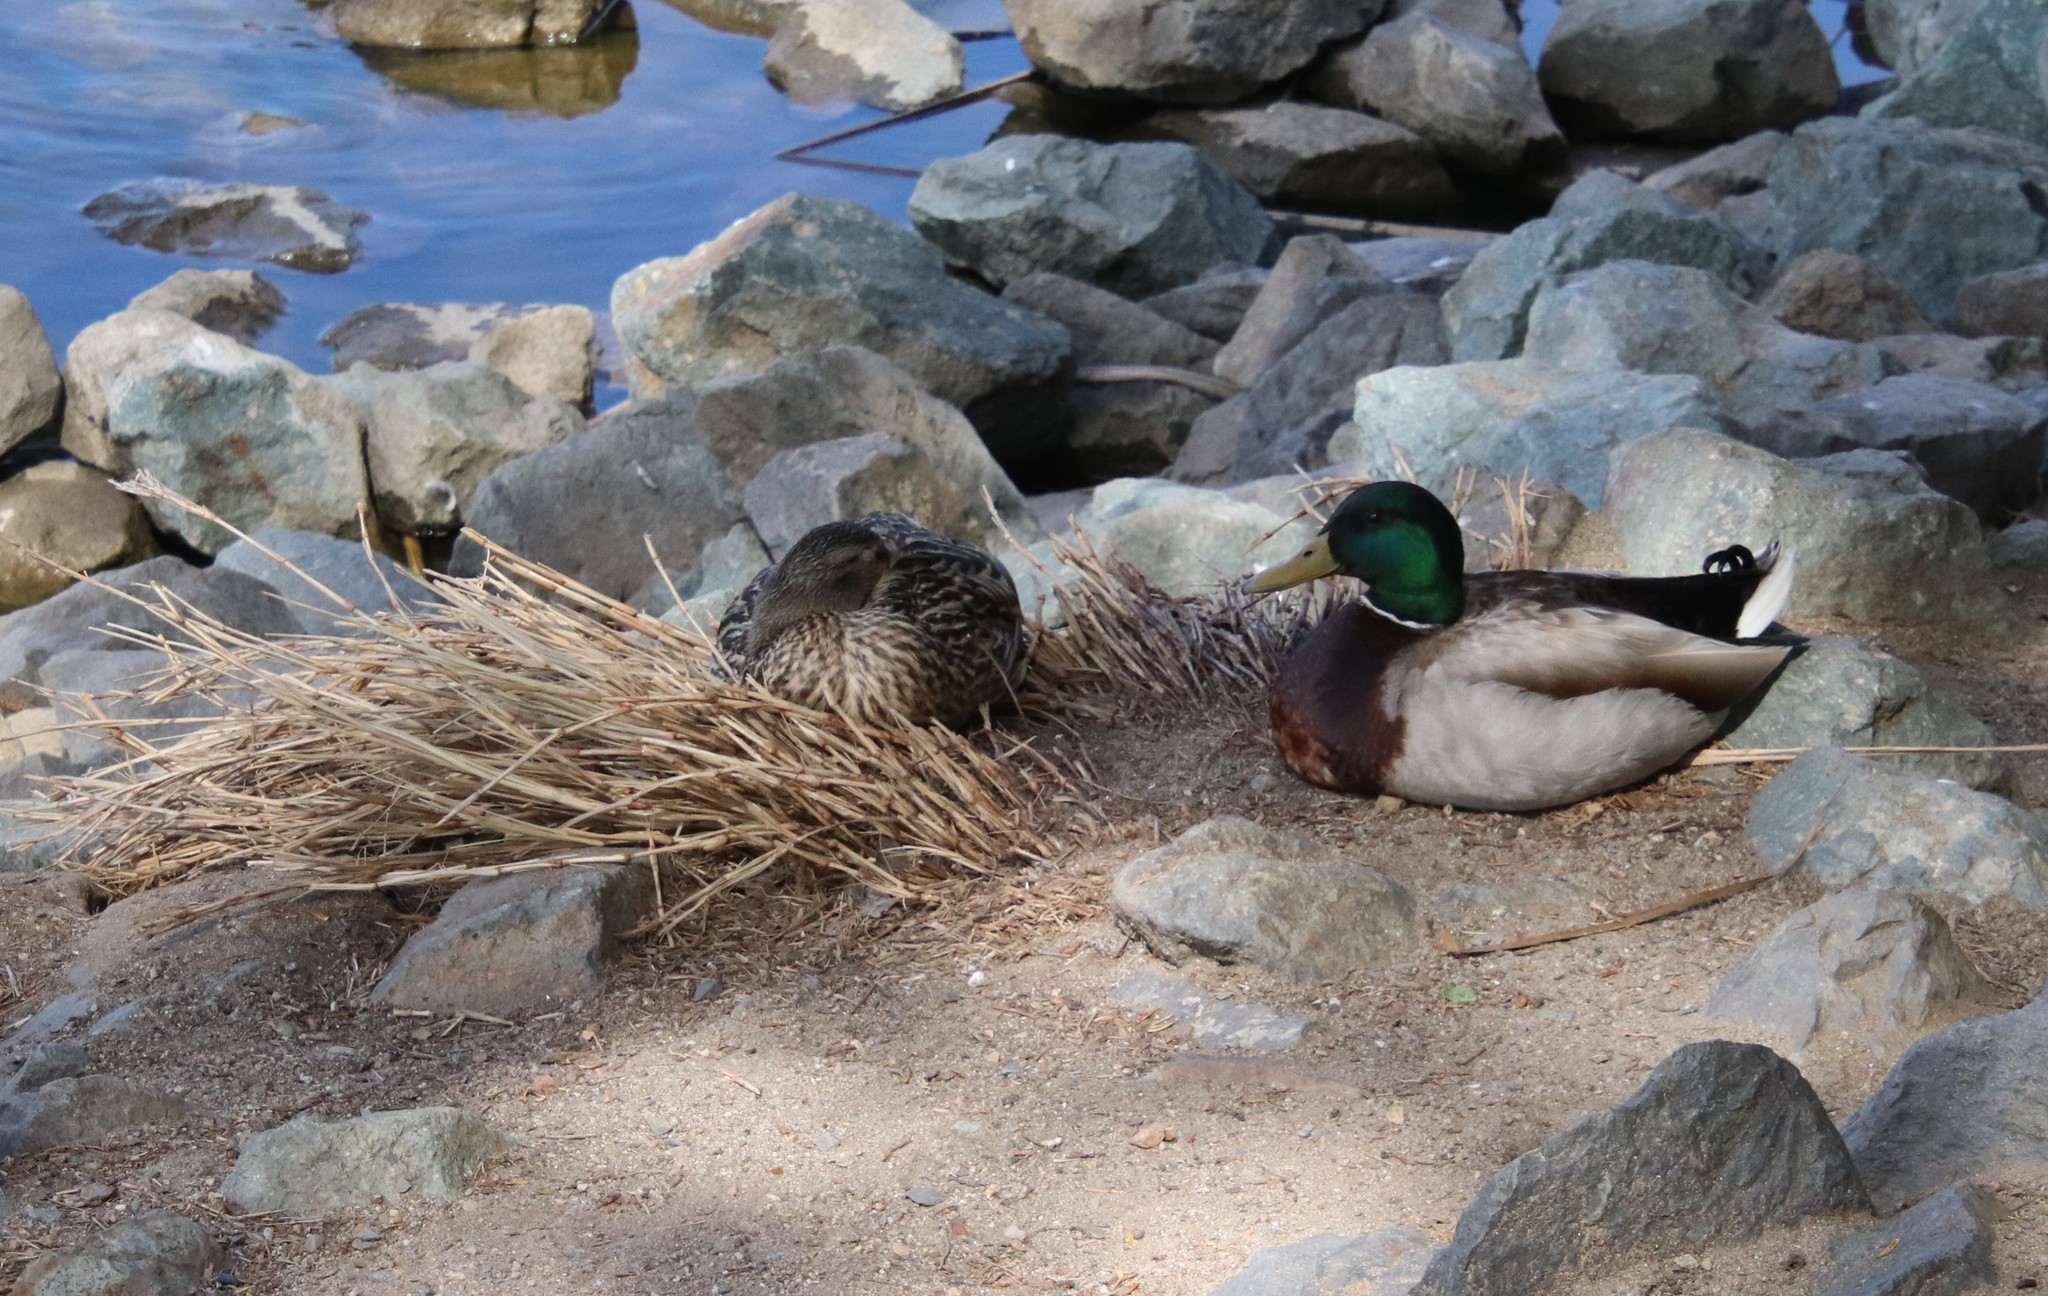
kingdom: Animalia
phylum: Chordata
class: Aves
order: Anseriformes
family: Anatidae
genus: Anas
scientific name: Anas platyrhynchos
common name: Mallard
